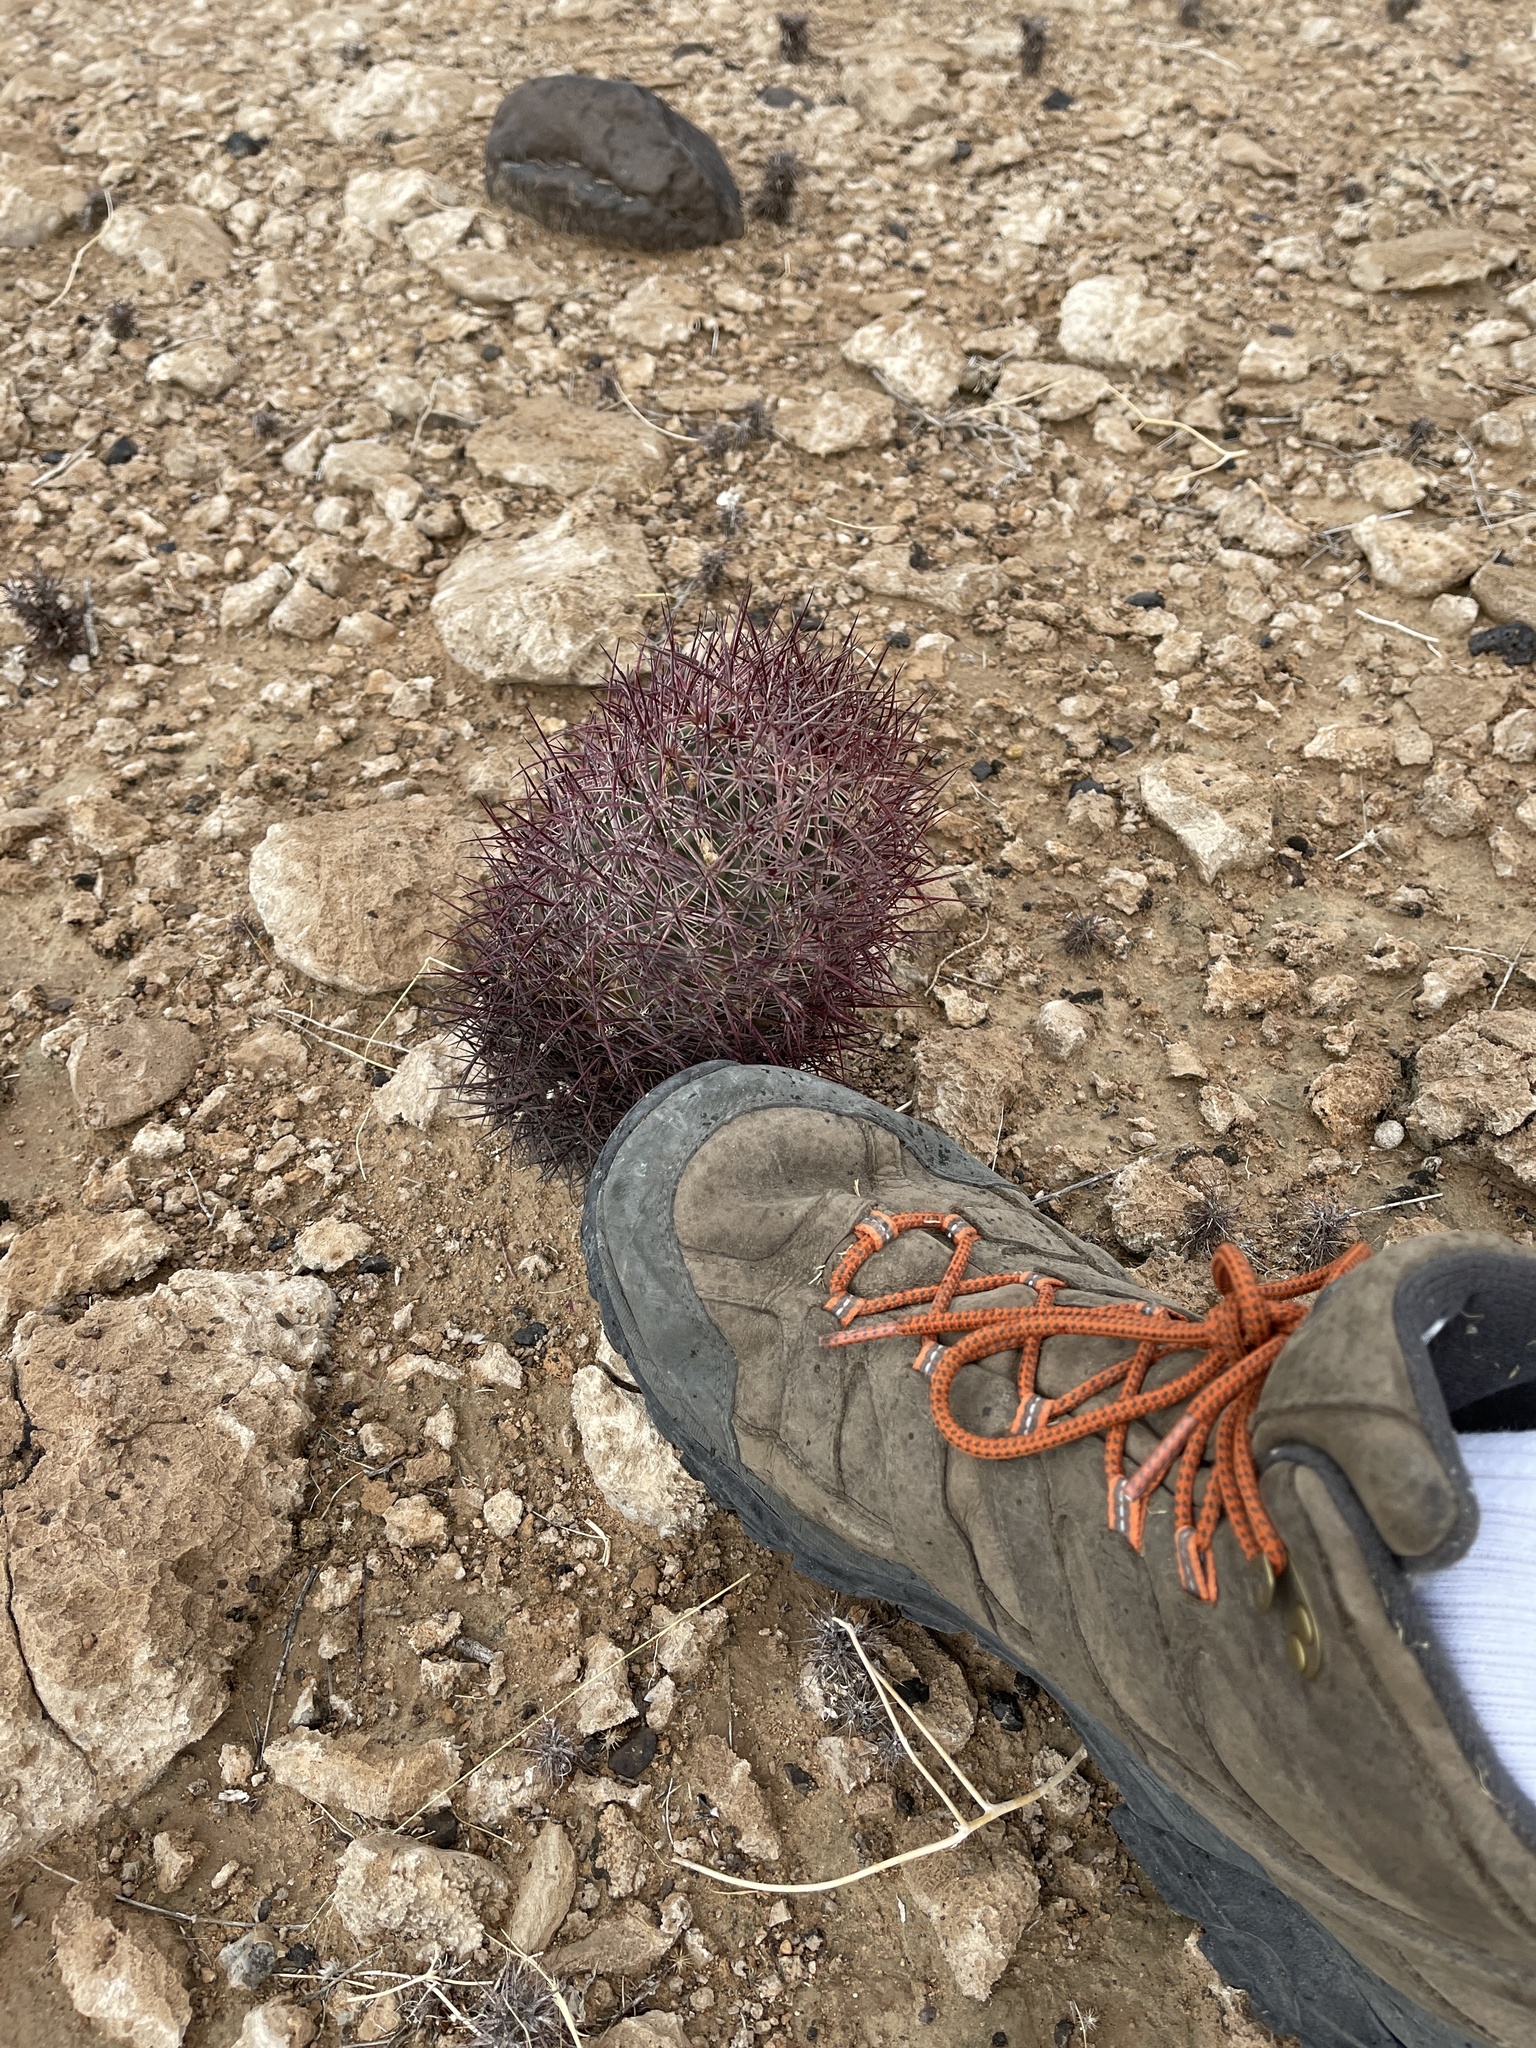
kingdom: Plantae
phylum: Tracheophyta
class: Magnoliopsida
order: Caryophyllales
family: Cactaceae
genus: Sclerocactus
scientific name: Sclerocactus johnsonii
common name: Eight-spine fishhook cactus
